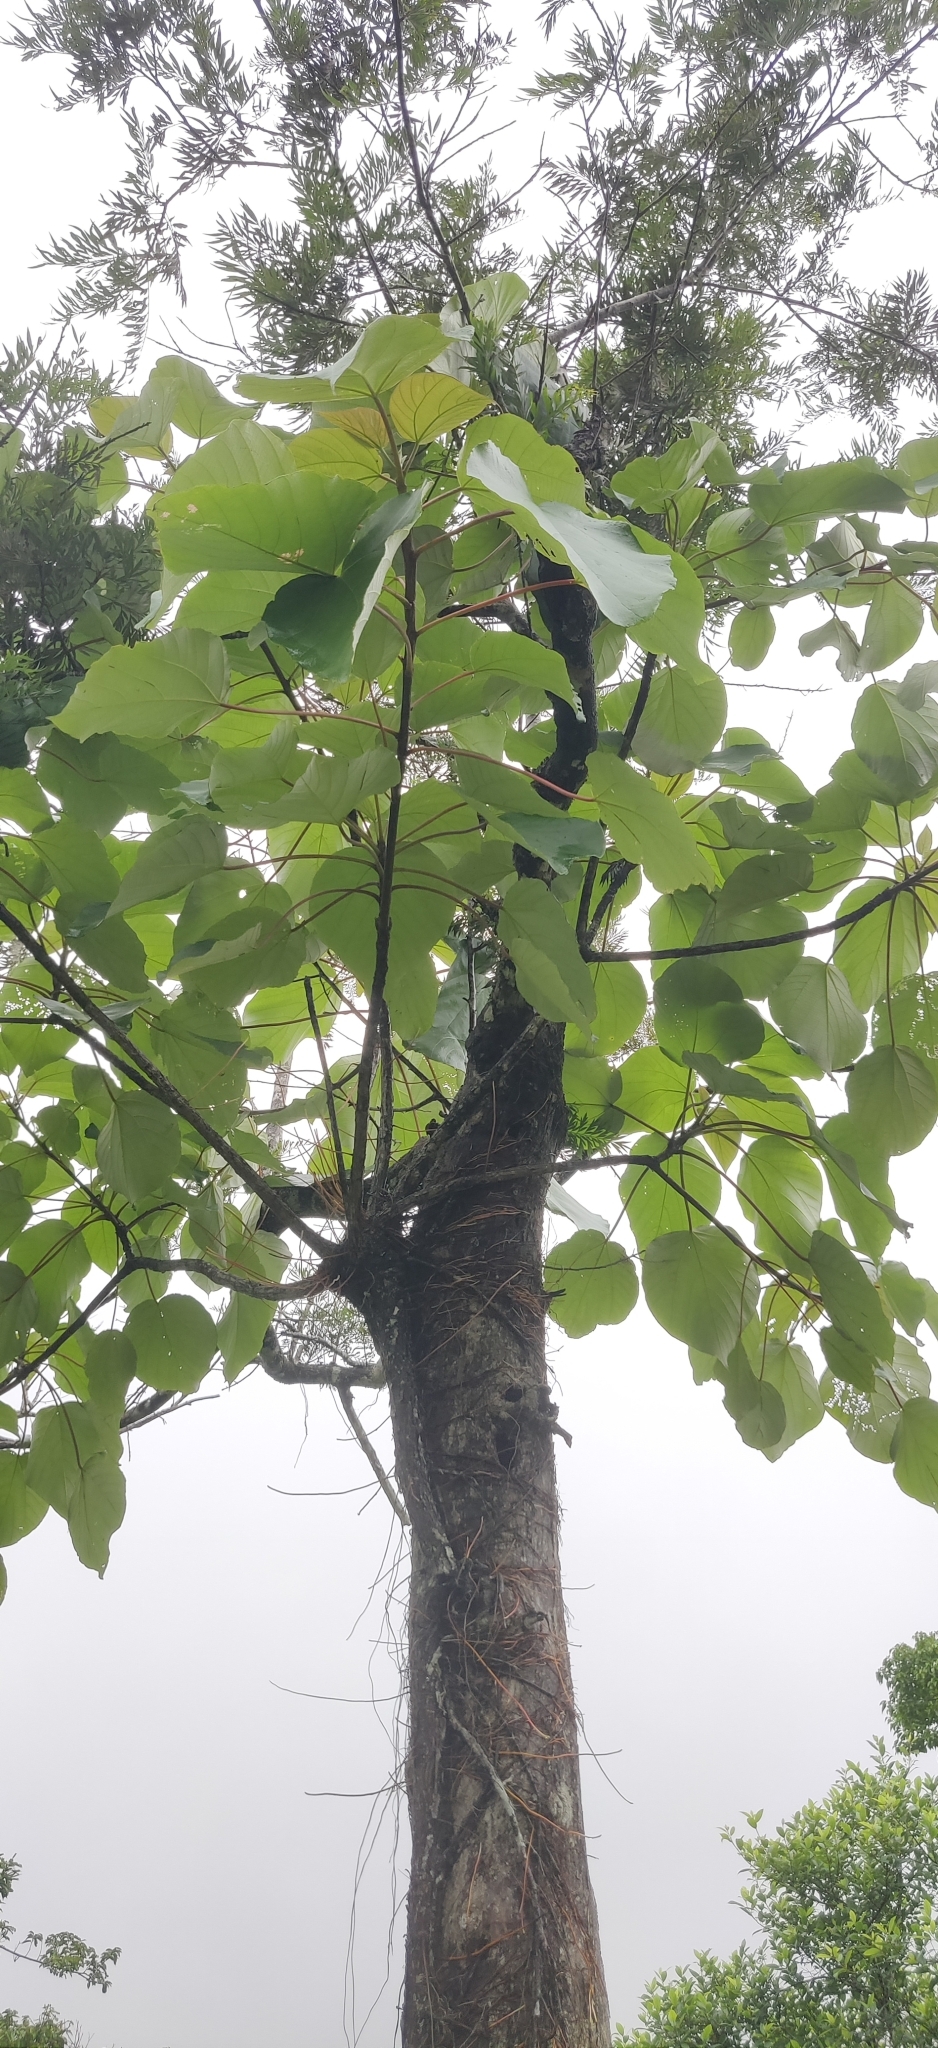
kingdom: Plantae
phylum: Tracheophyta
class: Magnoliopsida
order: Rosales
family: Urticaceae
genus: Debregeasia
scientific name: Debregeasia wallichiana
